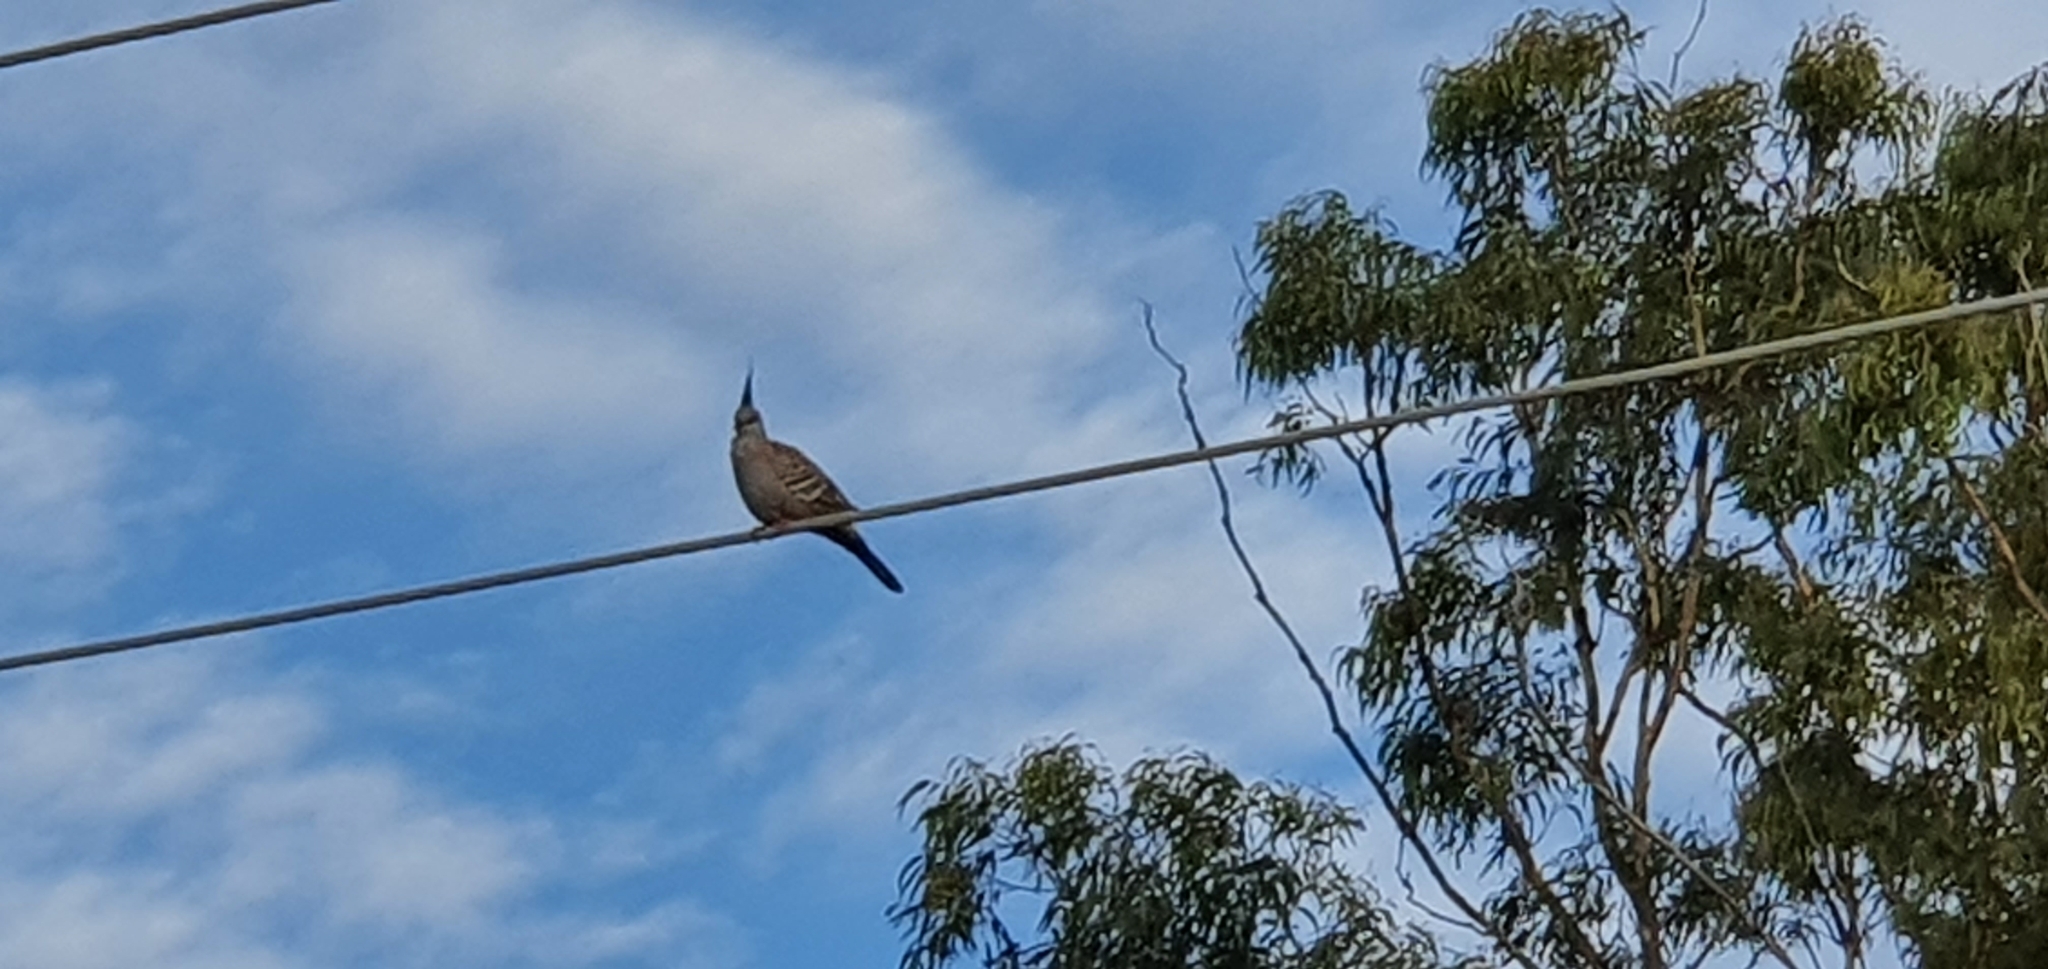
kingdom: Animalia
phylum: Chordata
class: Aves
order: Columbiformes
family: Columbidae
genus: Ocyphaps
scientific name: Ocyphaps lophotes
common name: Crested pigeon
